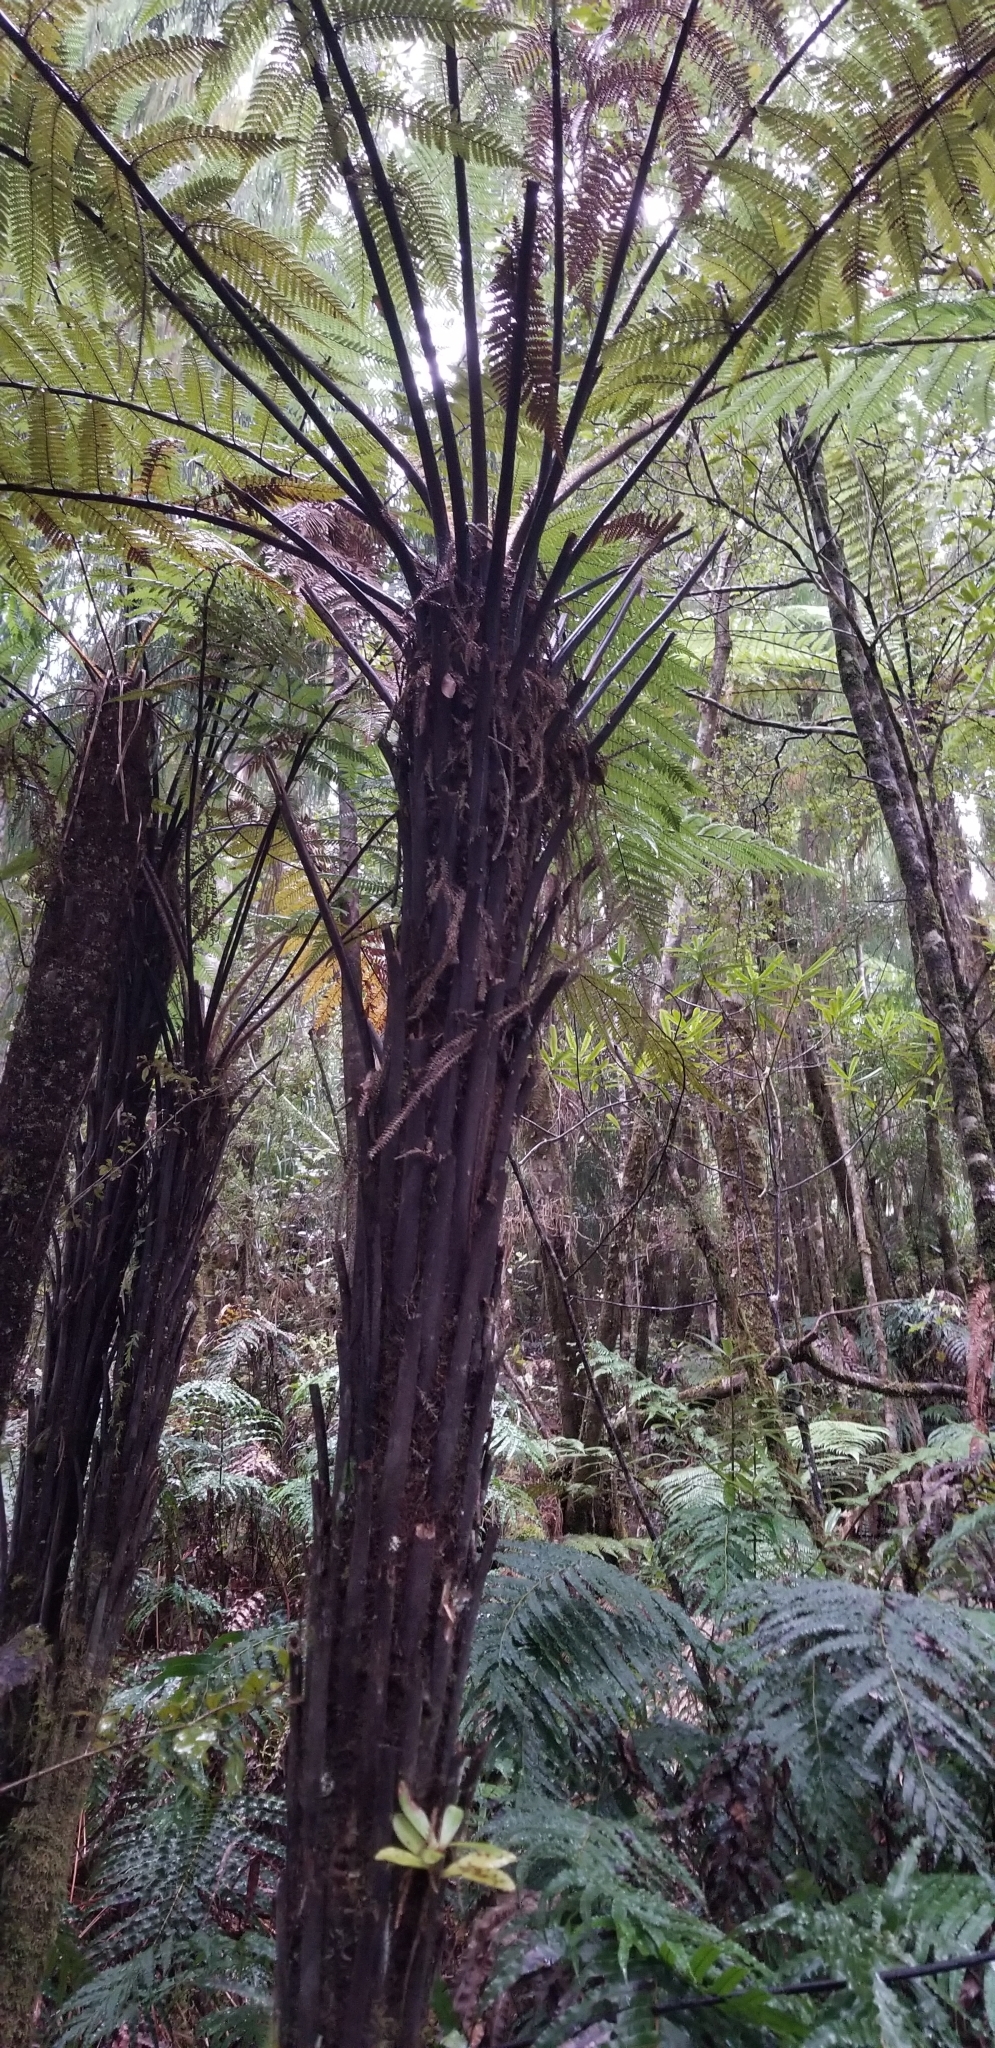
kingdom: Plantae
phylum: Tracheophyta
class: Polypodiopsida
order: Cyatheales
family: Dicksoniaceae
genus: Dicksonia
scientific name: Dicksonia squarrosa
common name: Hard treefern
